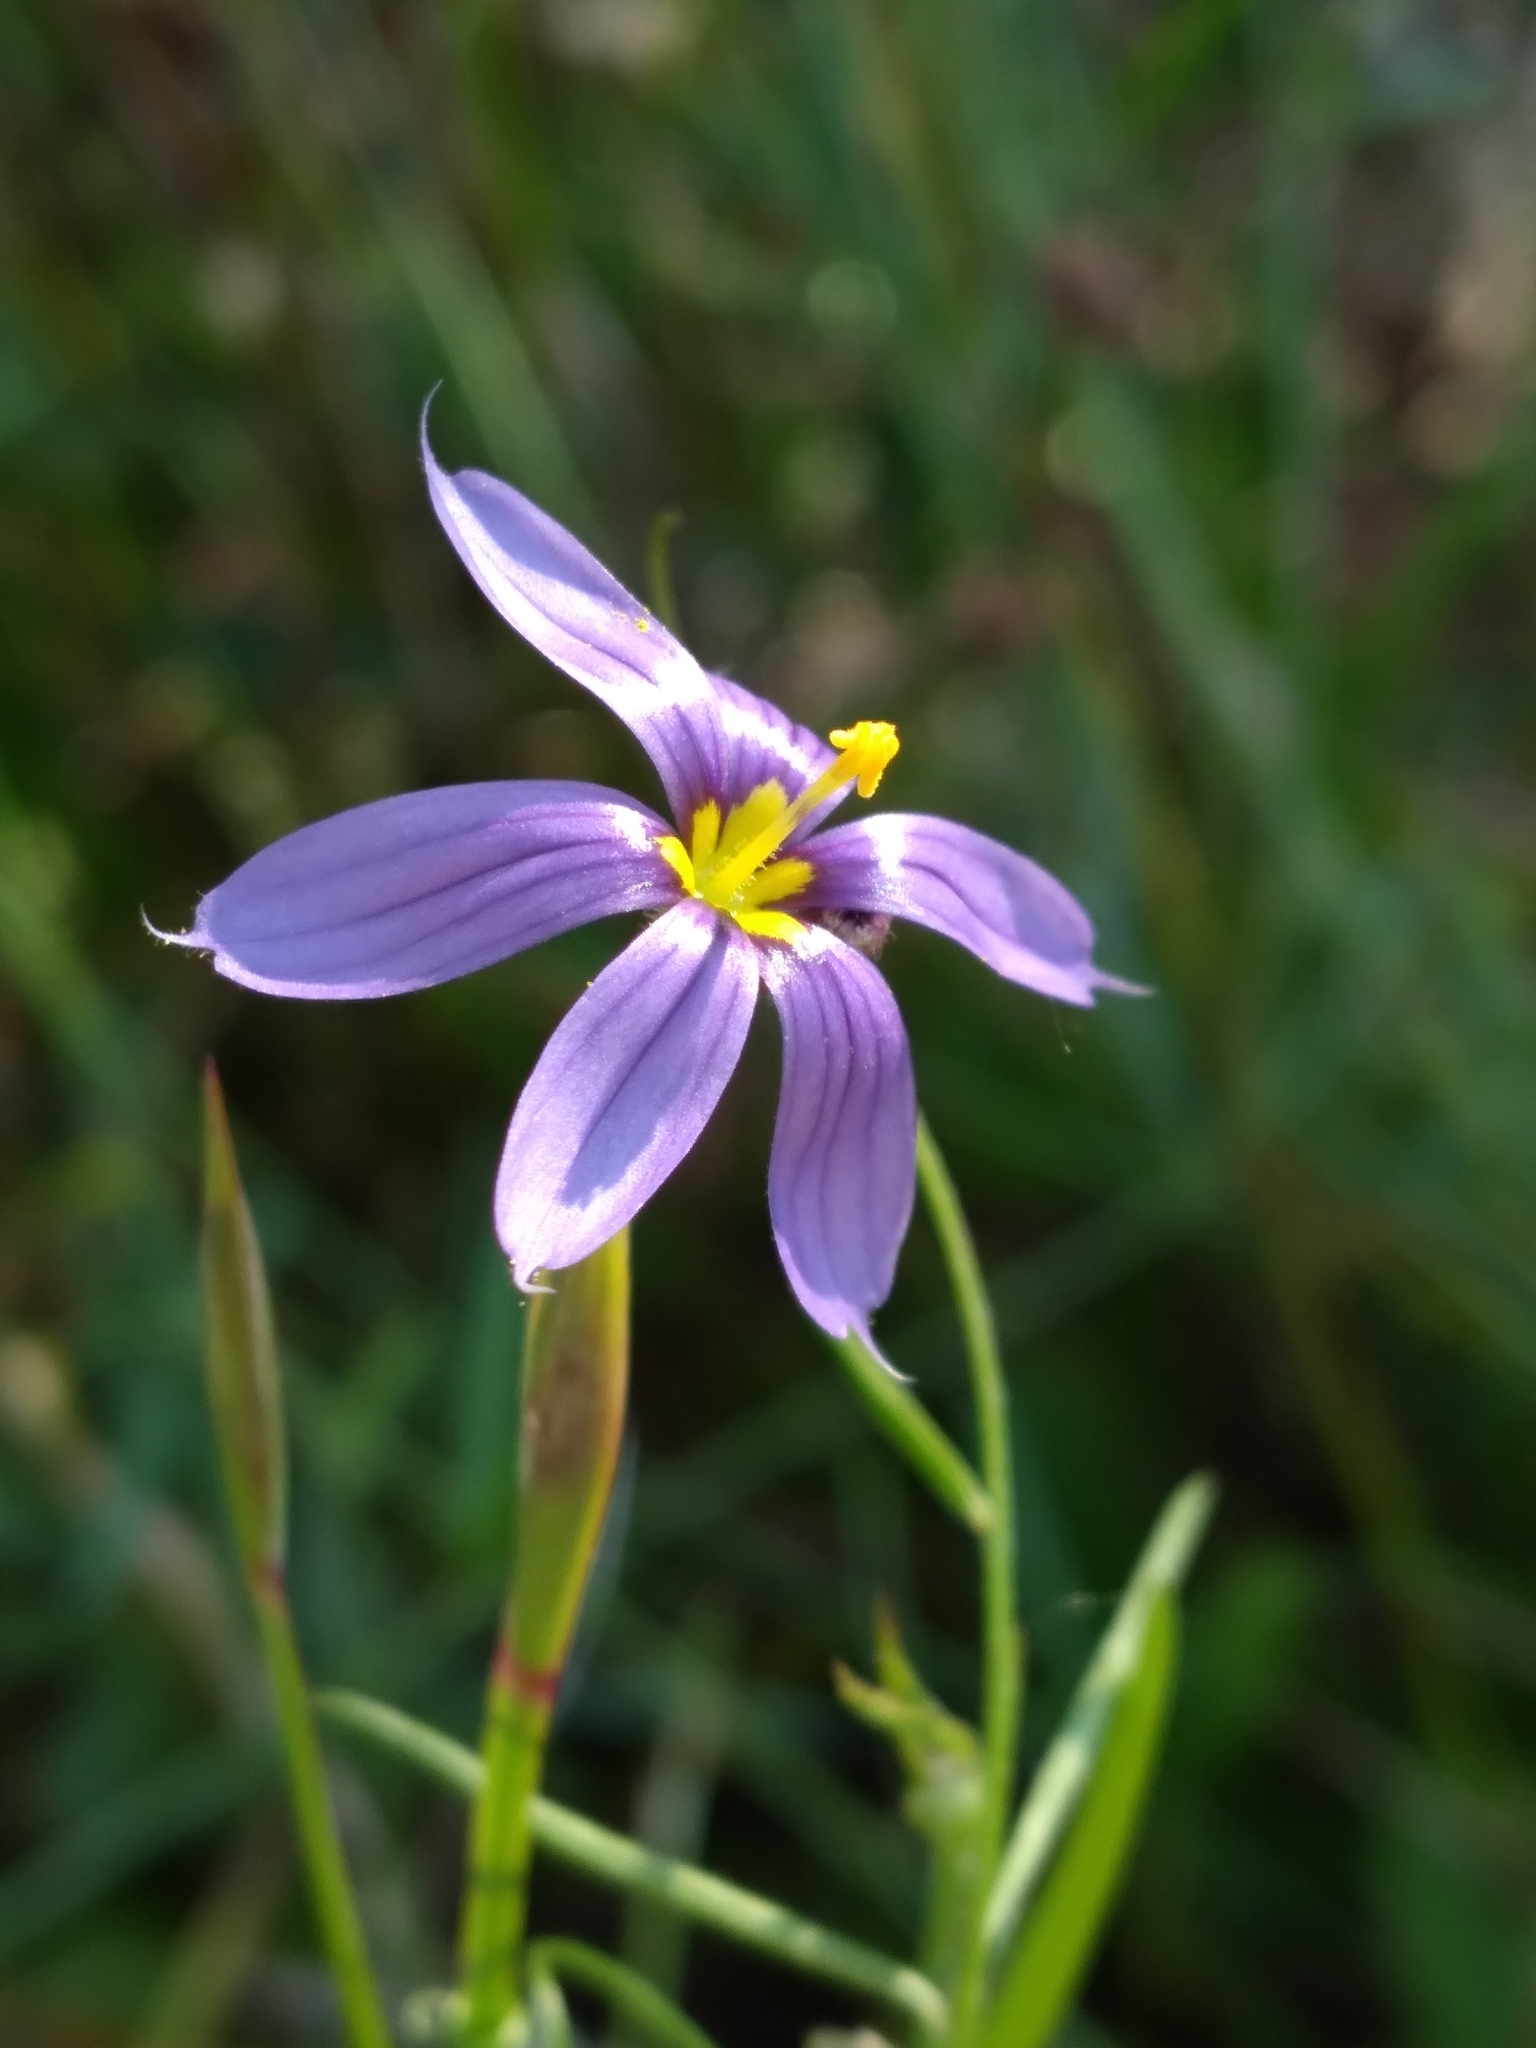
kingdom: Plantae
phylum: Tracheophyta
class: Liliopsida
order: Asparagales
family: Iridaceae
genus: Sisyrinchium
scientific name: Sisyrinchium angustifolium
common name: Narrow-leaf blue-eyed-grass
